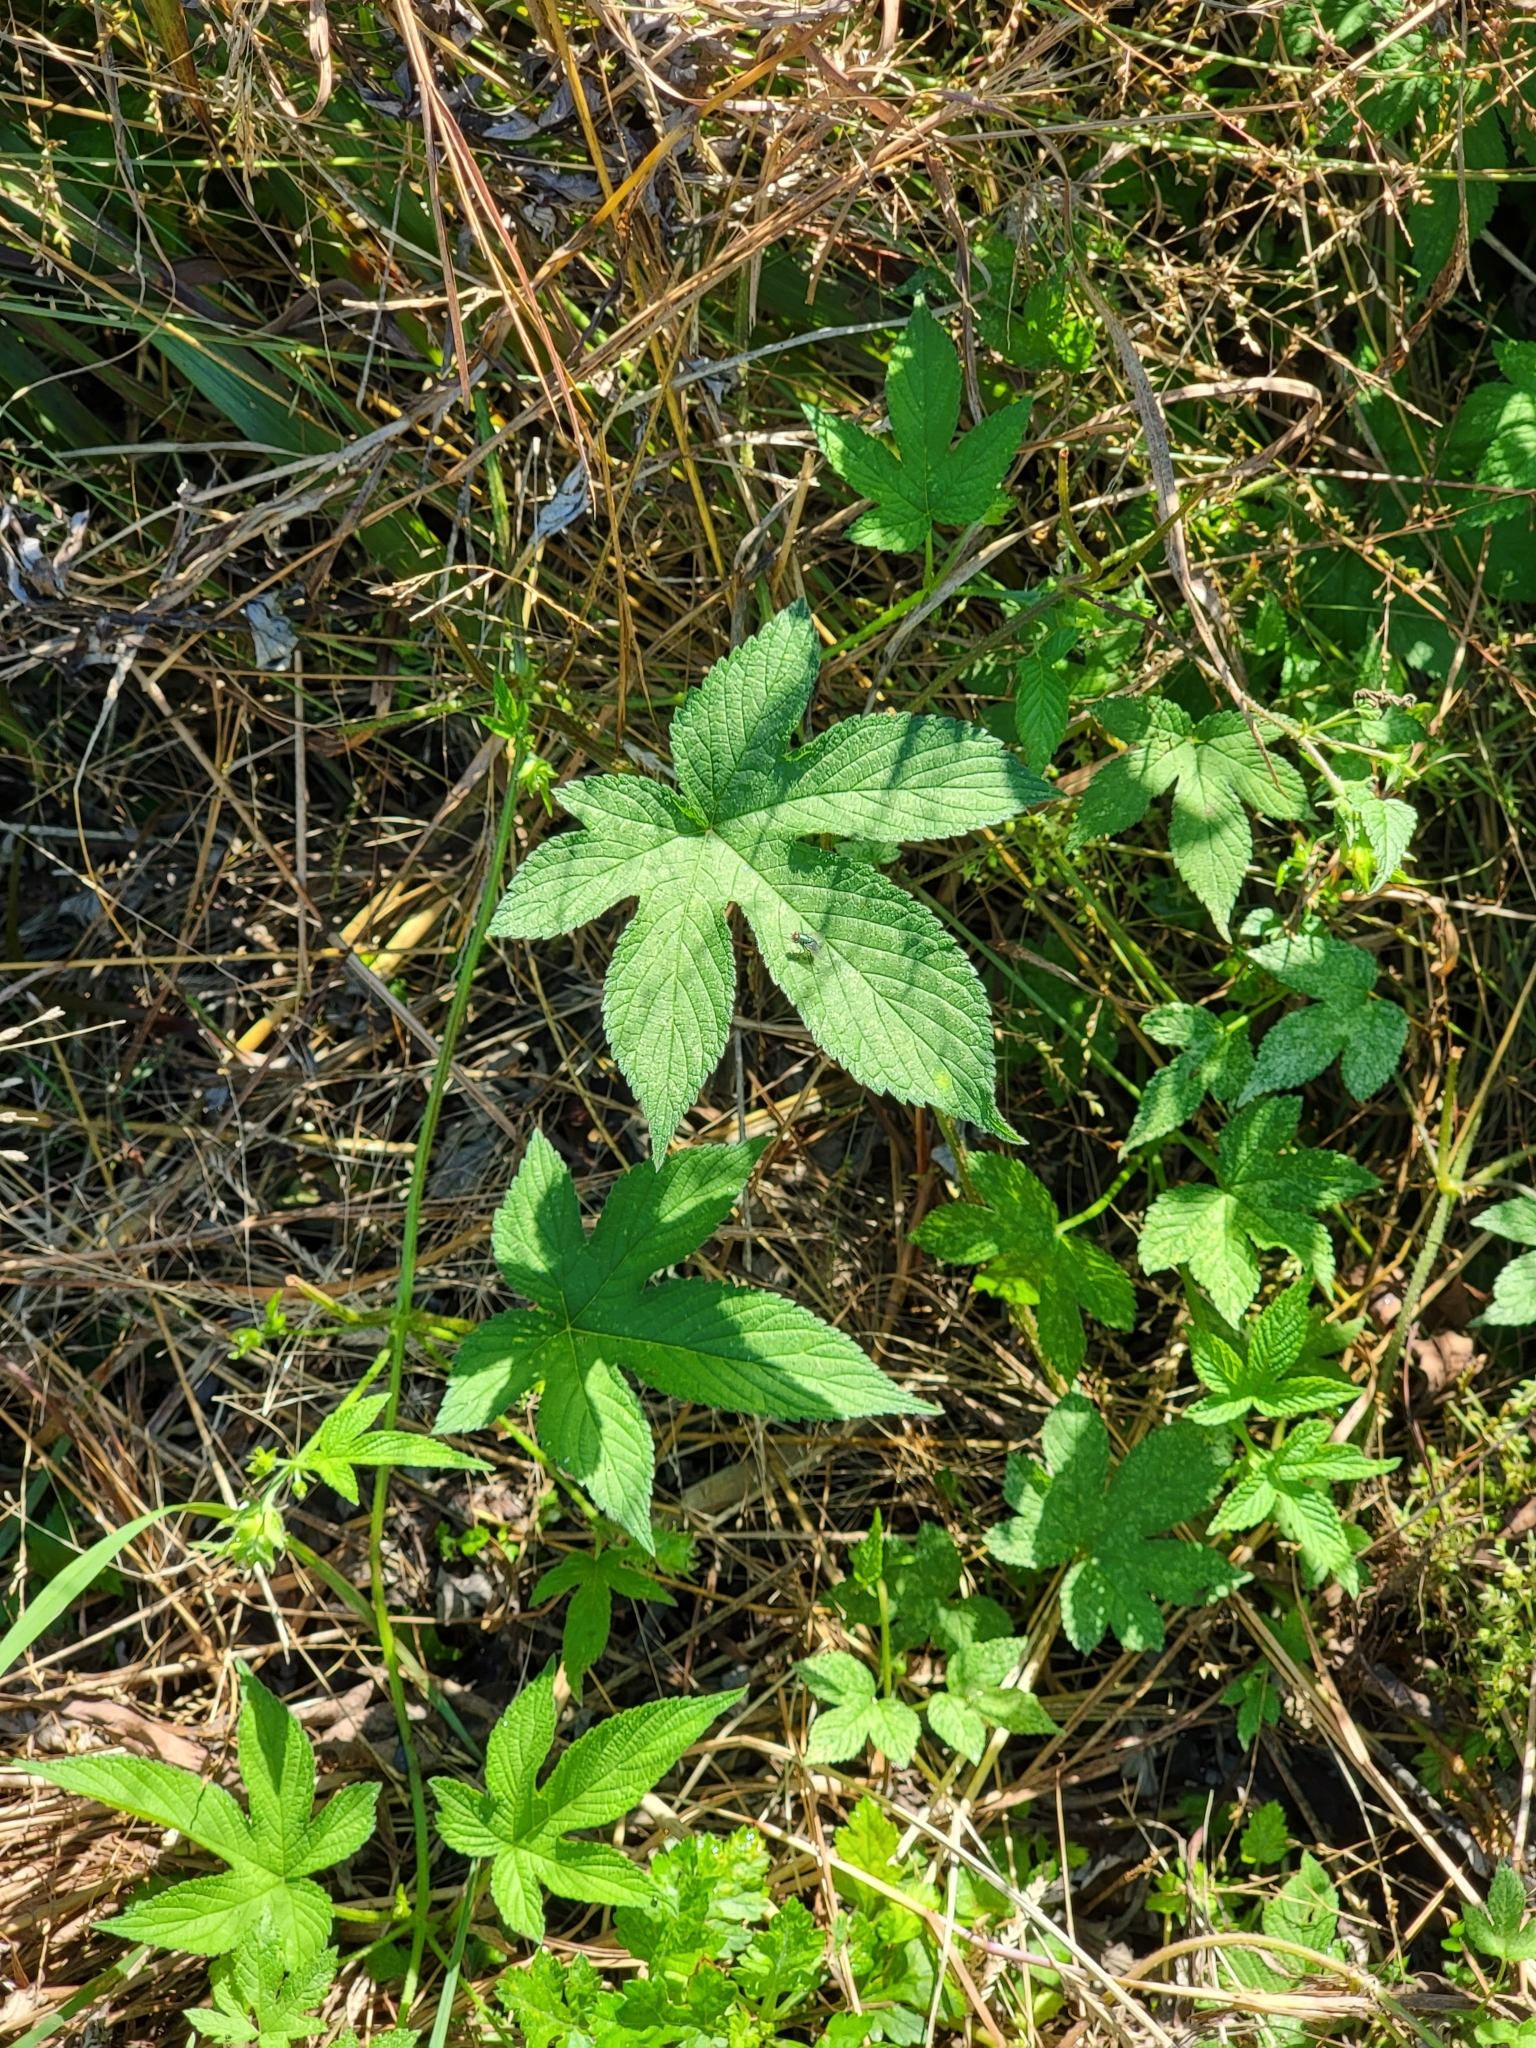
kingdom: Plantae
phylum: Tracheophyta
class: Magnoliopsida
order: Rosales
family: Cannabaceae
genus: Humulus
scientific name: Humulus scandens
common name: Japanese hop
